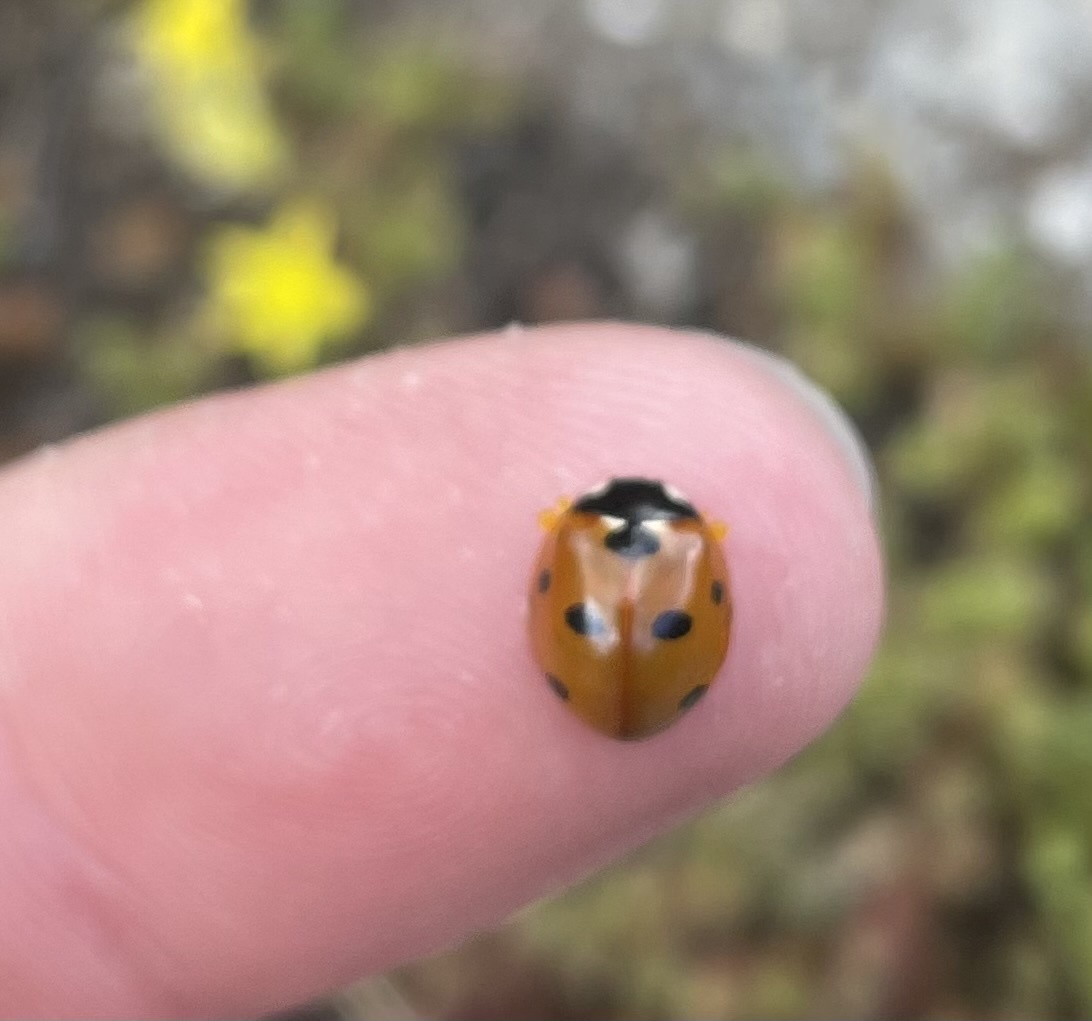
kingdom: Animalia
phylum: Arthropoda
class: Insecta
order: Coleoptera
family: Coccinellidae
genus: Coccinella
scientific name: Coccinella septempunctata
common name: Sevenspotted lady beetle
